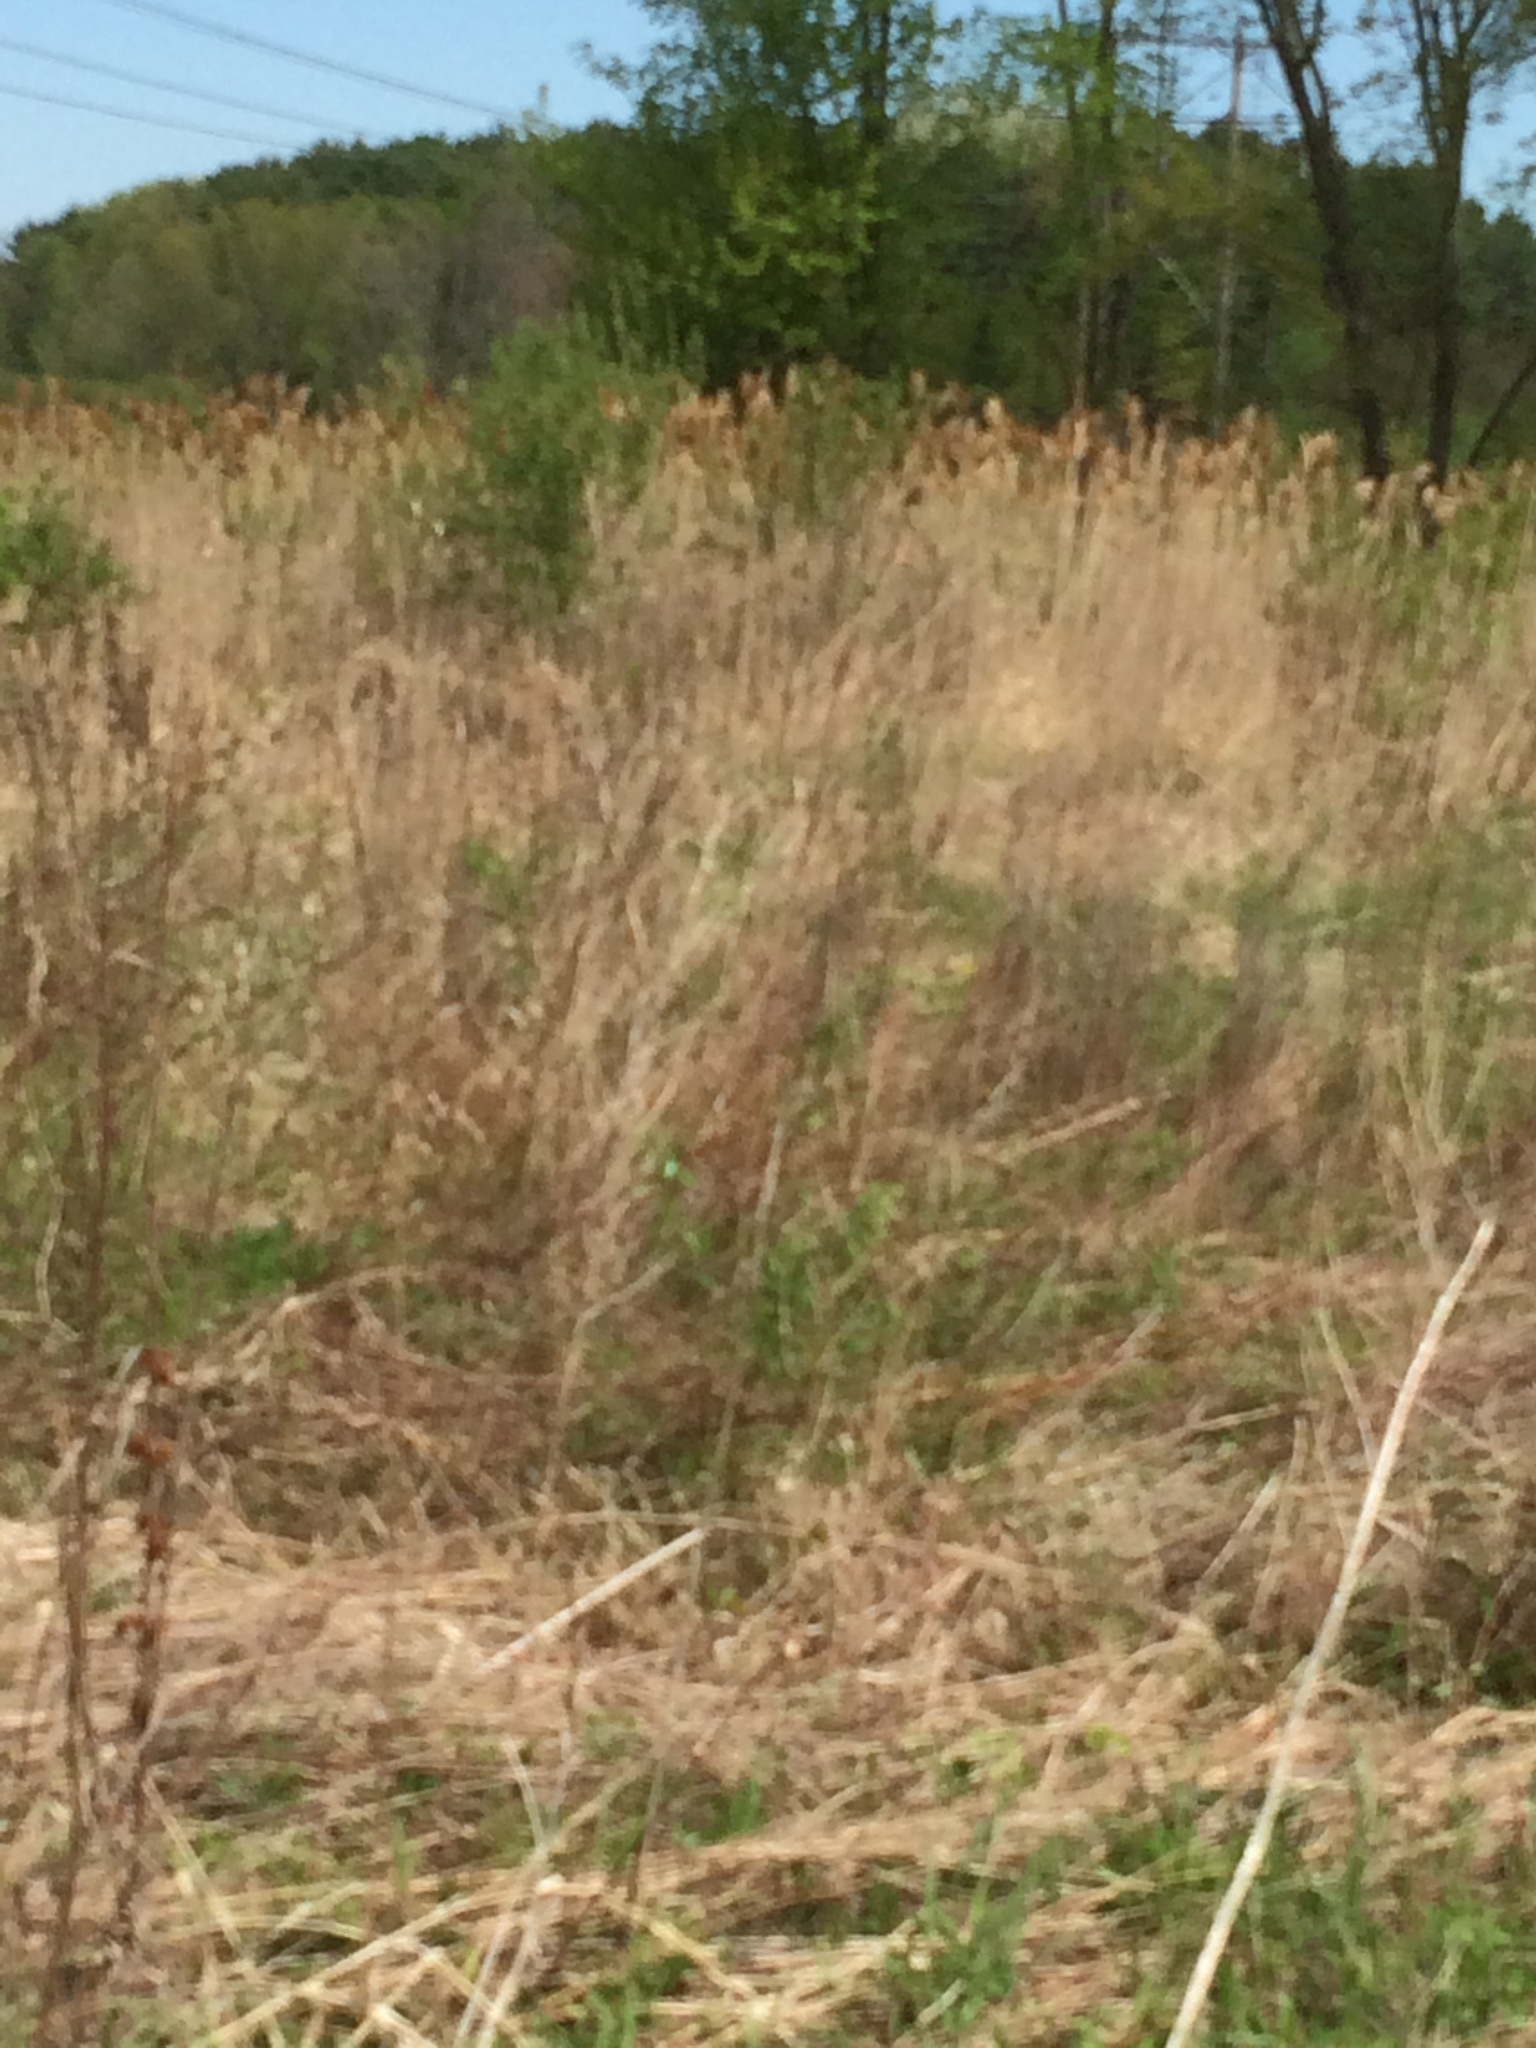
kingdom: Plantae
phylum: Tracheophyta
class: Liliopsida
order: Poales
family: Poaceae
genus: Phragmites
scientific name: Phragmites australis
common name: Common reed
